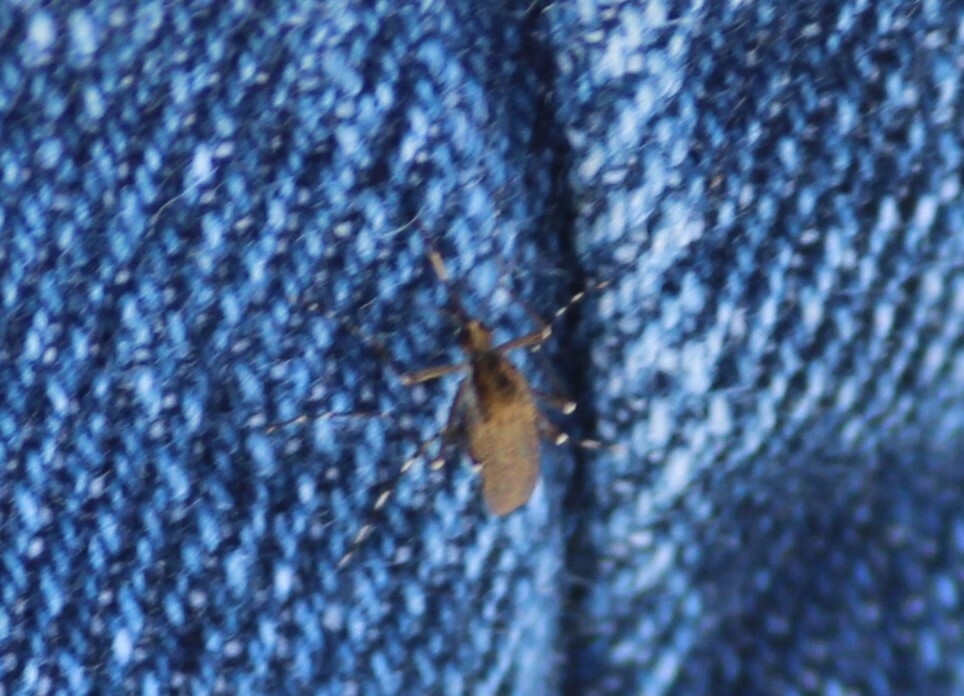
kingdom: Animalia
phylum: Arthropoda
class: Insecta
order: Diptera
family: Culicidae
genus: Aedes
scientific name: Aedes sollicitans
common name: Saltmarsh mosquito
